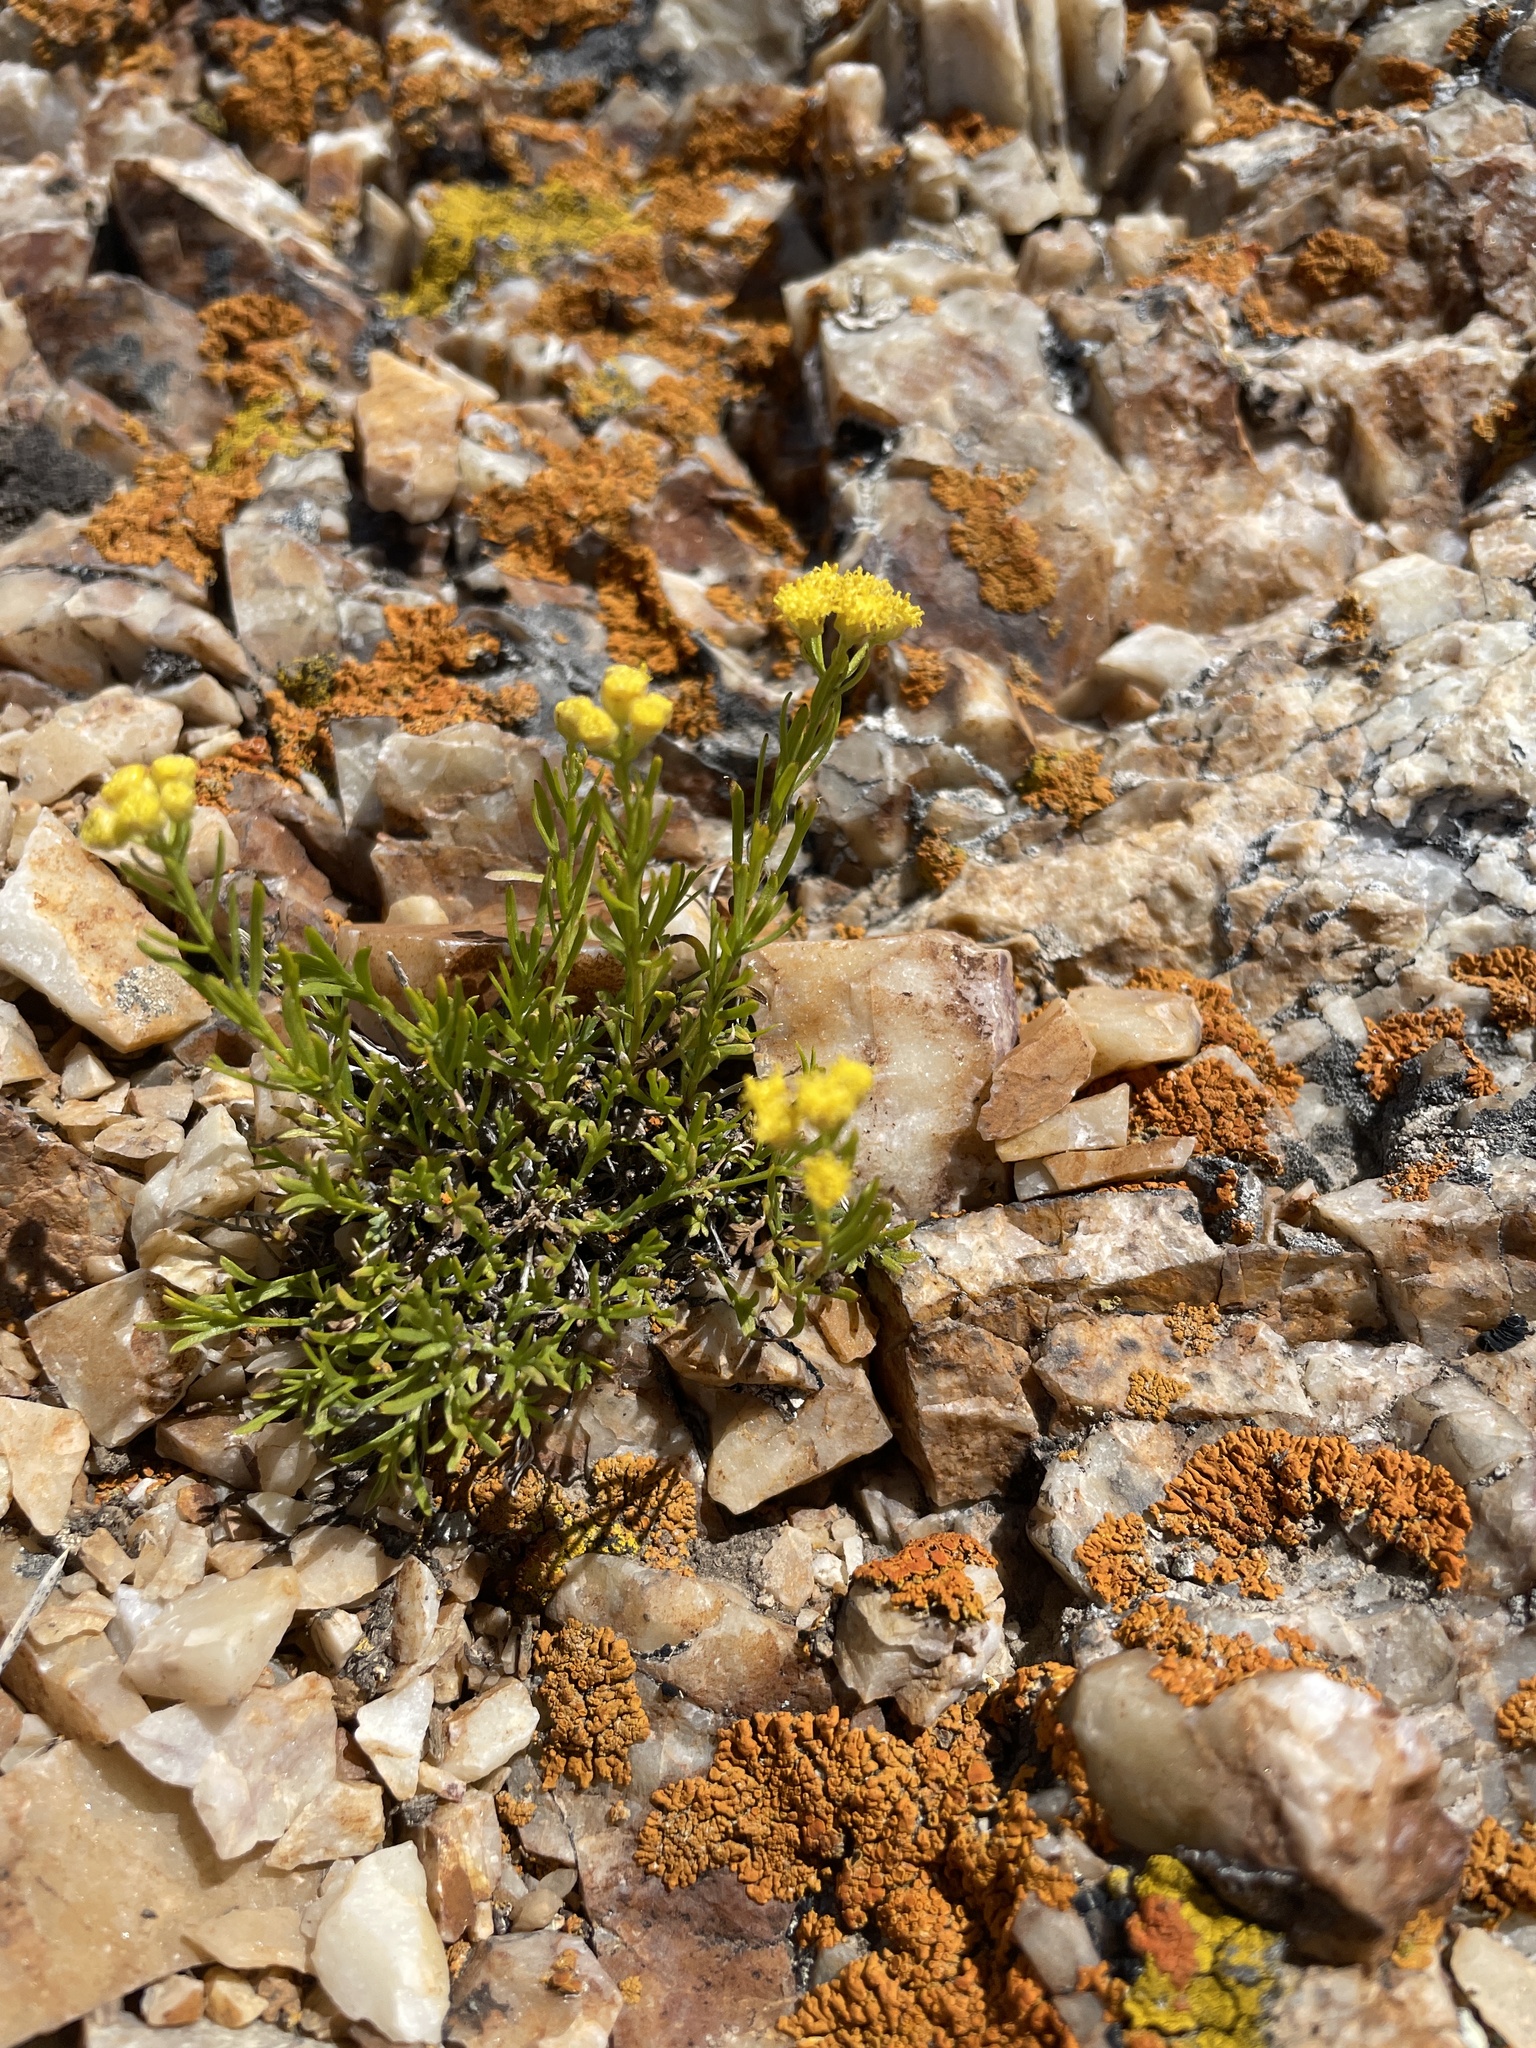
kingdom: Plantae
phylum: Tracheophyta
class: Magnoliopsida
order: Asterales
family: Asteraceae
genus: Artemisia
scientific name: Artemisia inaequifolia
